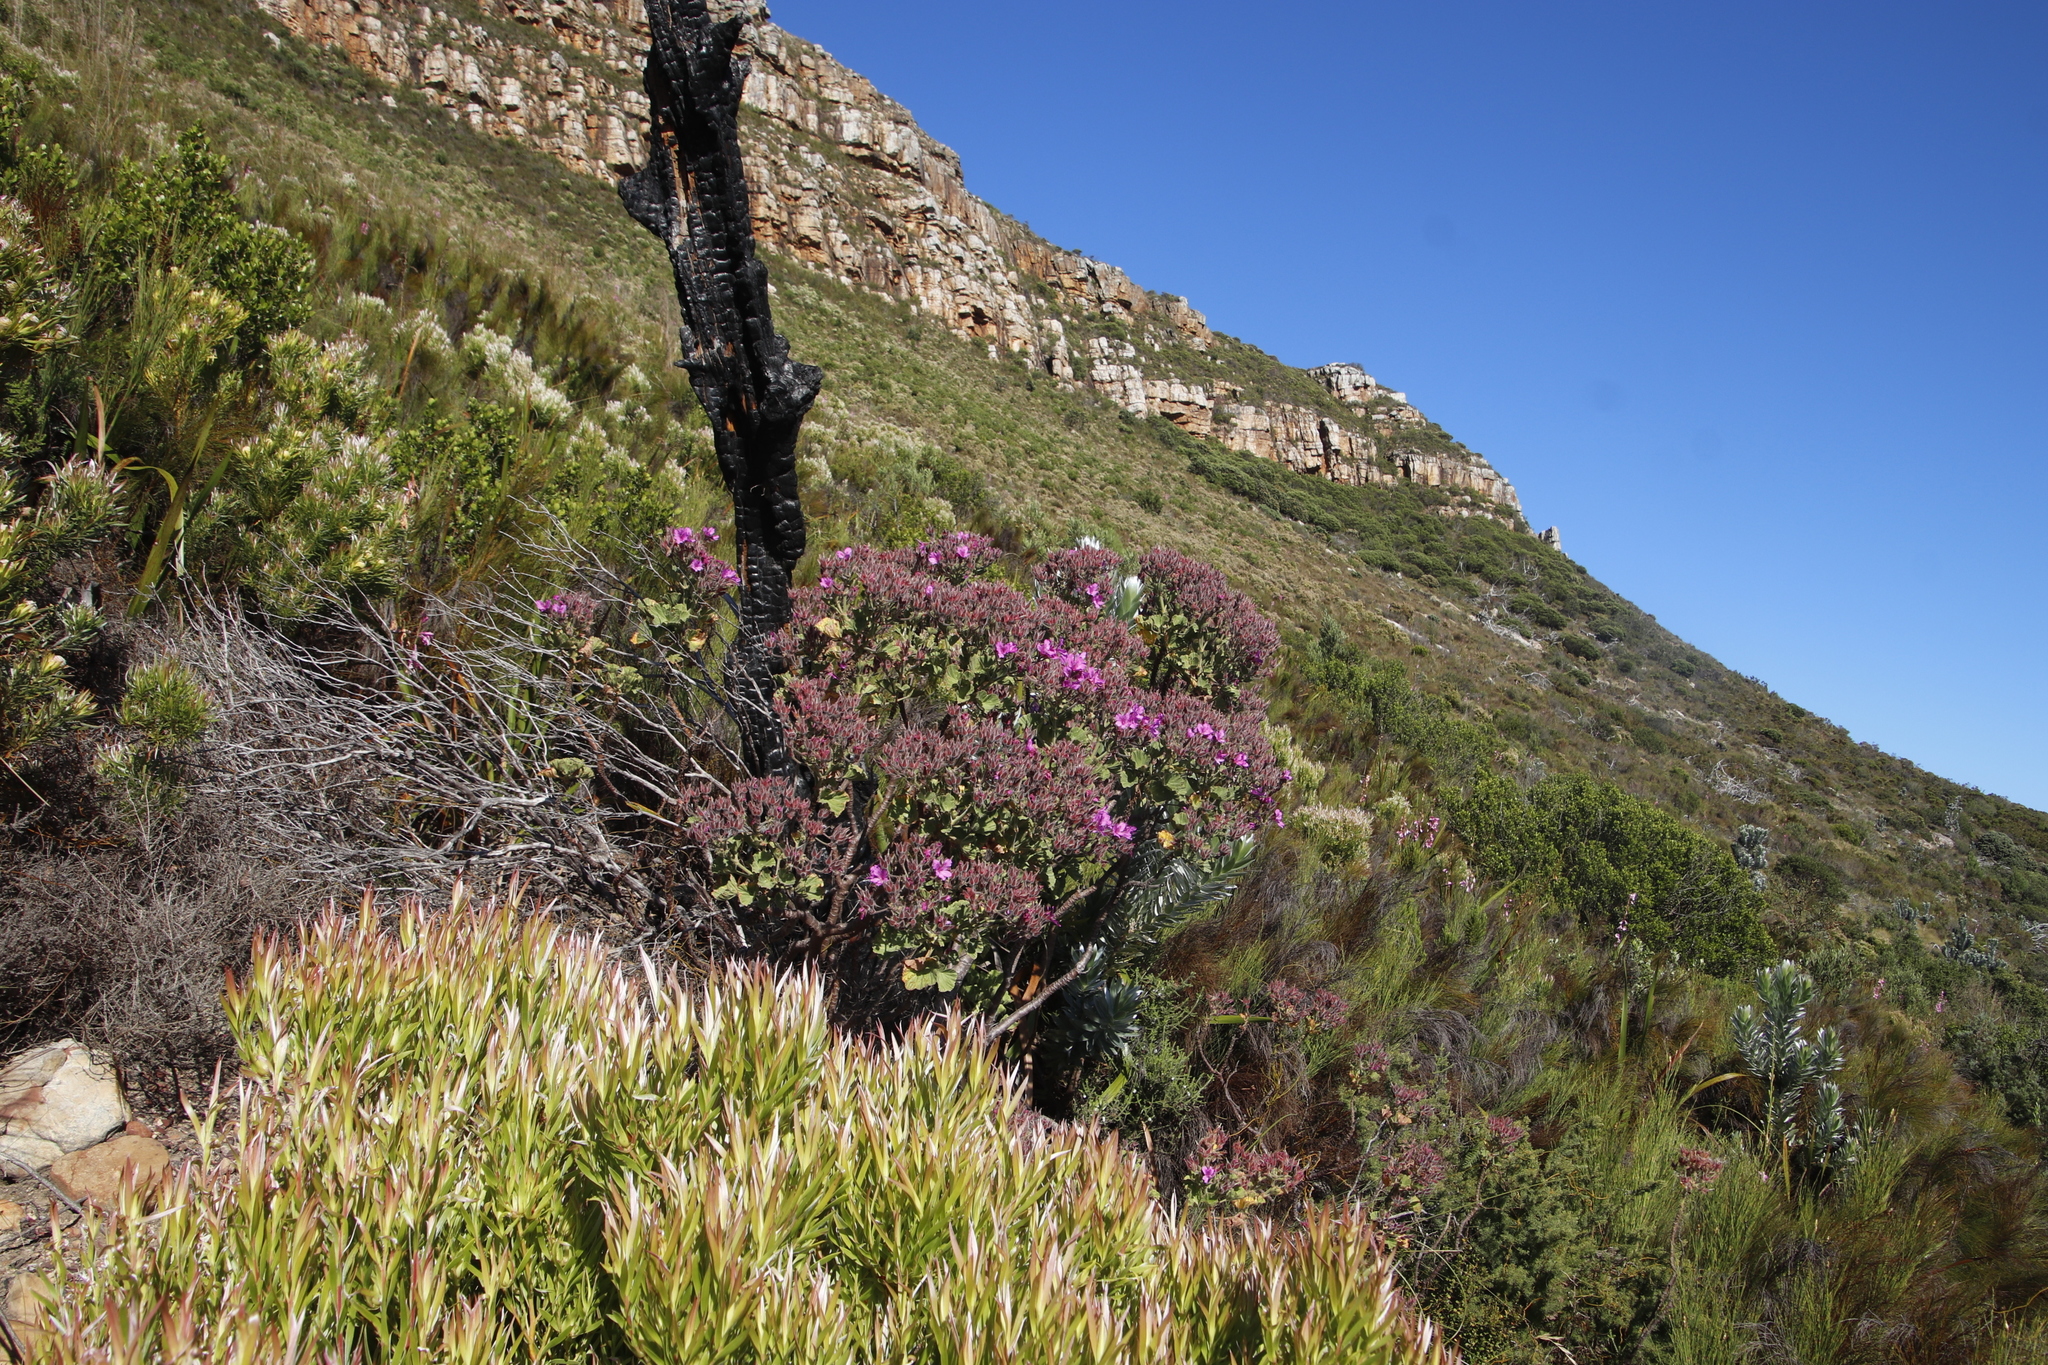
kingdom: Plantae
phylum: Tracheophyta
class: Magnoliopsida
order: Geraniales
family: Geraniaceae
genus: Pelargonium
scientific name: Pelargonium cucullatum
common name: Tree pelargonium
